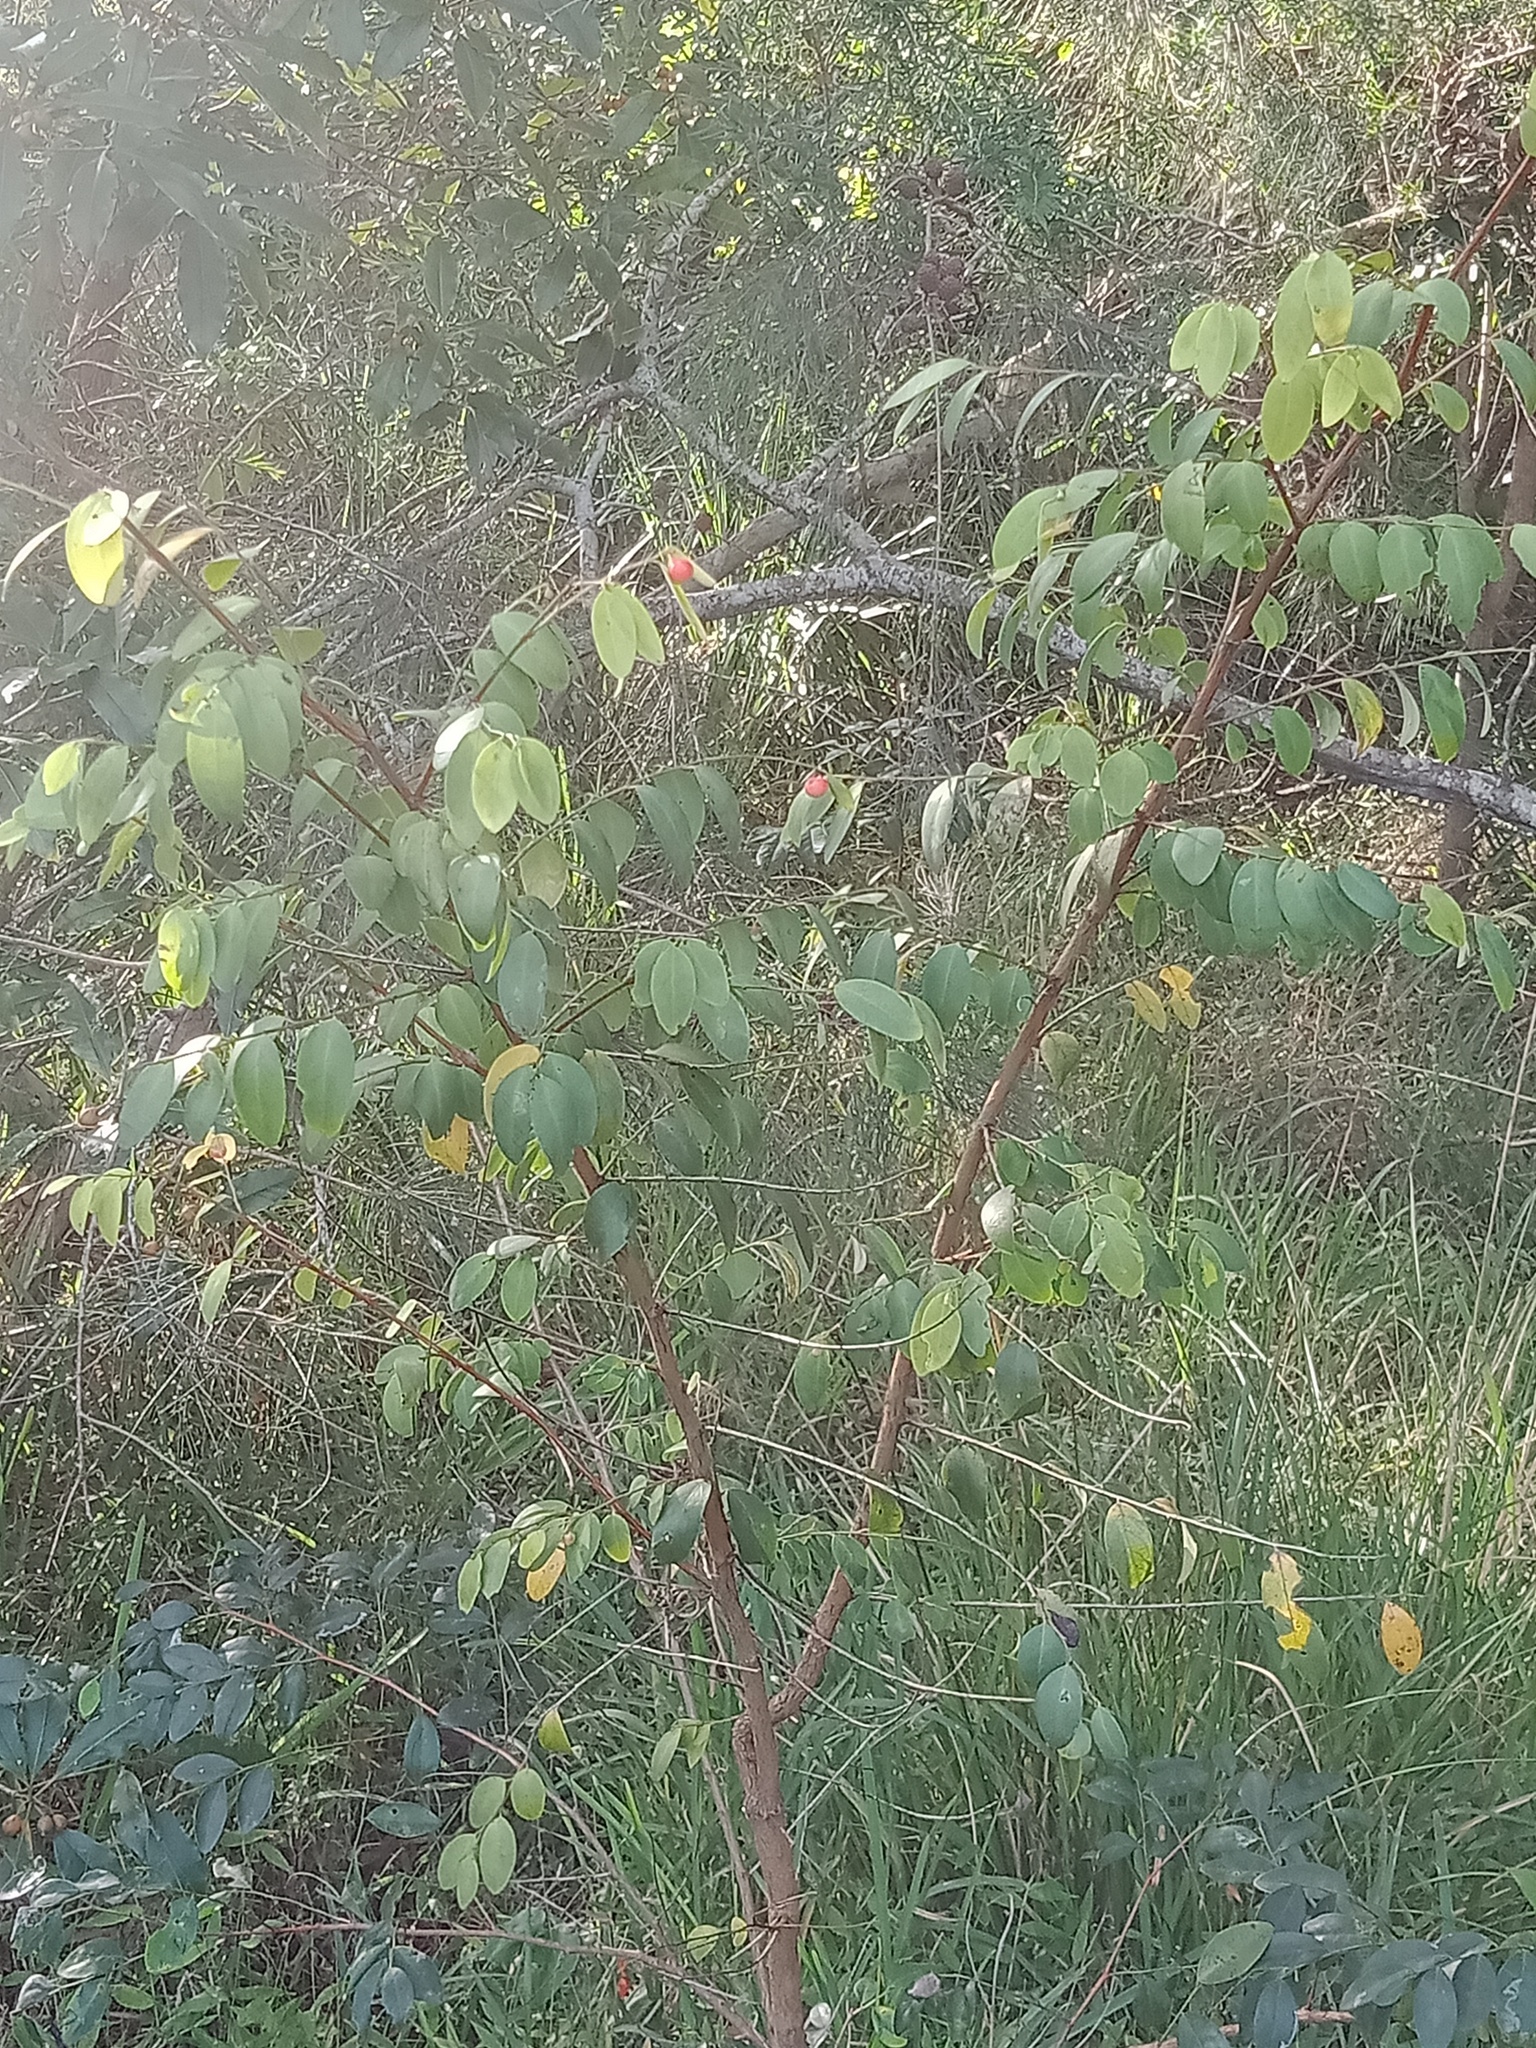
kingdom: Plantae
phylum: Tracheophyta
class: Magnoliopsida
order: Malpighiales
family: Phyllanthaceae
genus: Breynia
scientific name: Breynia oblongifolia
